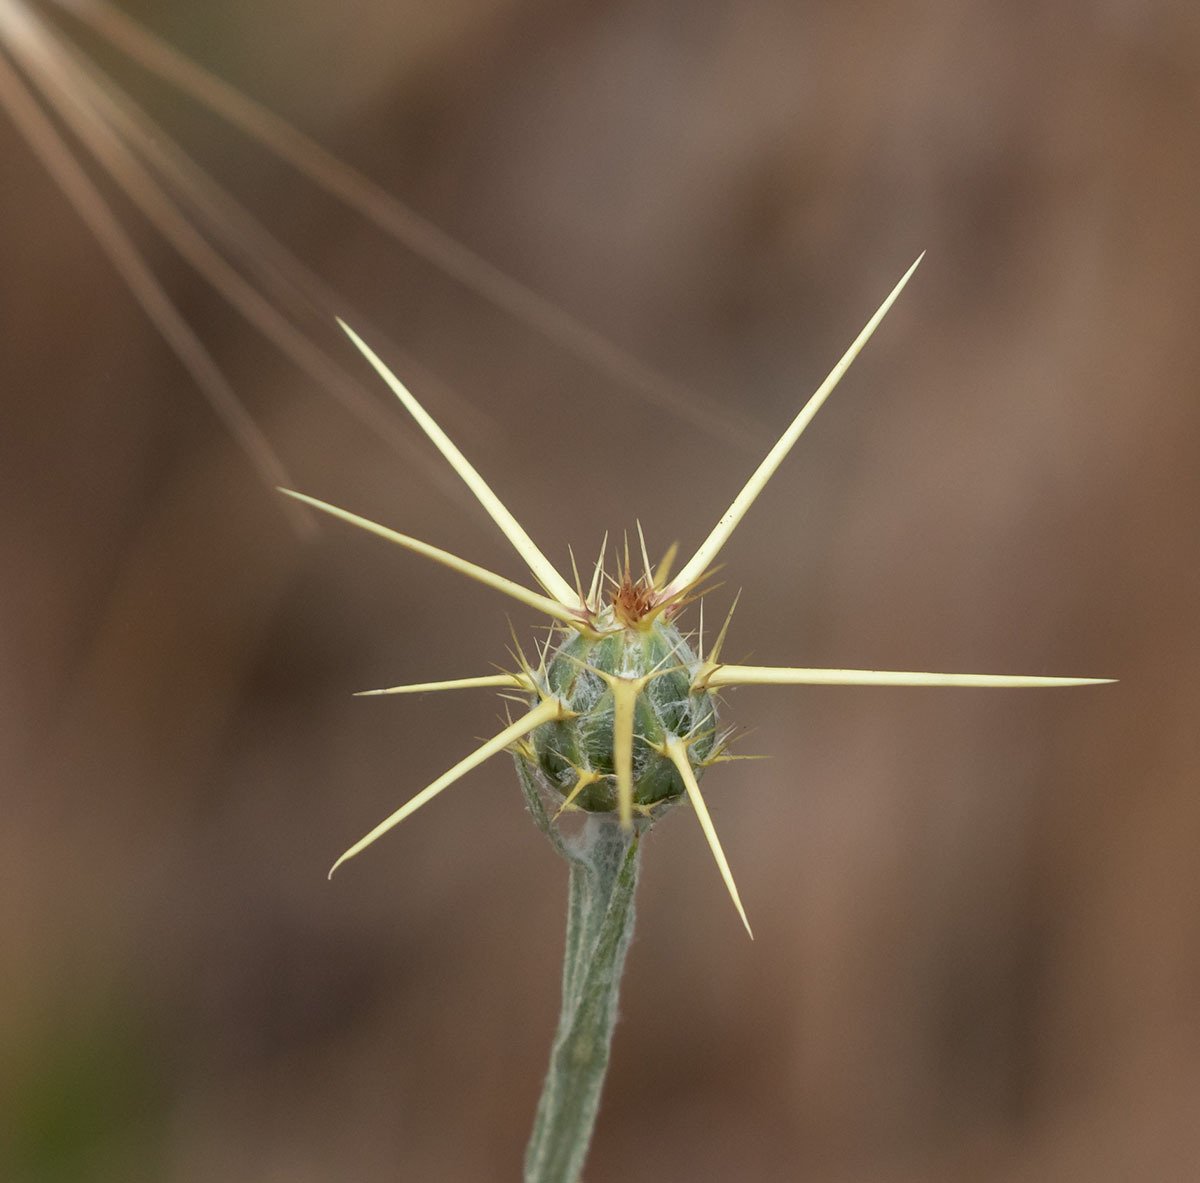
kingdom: Plantae
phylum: Tracheophyta
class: Magnoliopsida
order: Asterales
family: Asteraceae
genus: Centaurea
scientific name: Centaurea solstitialis
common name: Yellow star-thistle
